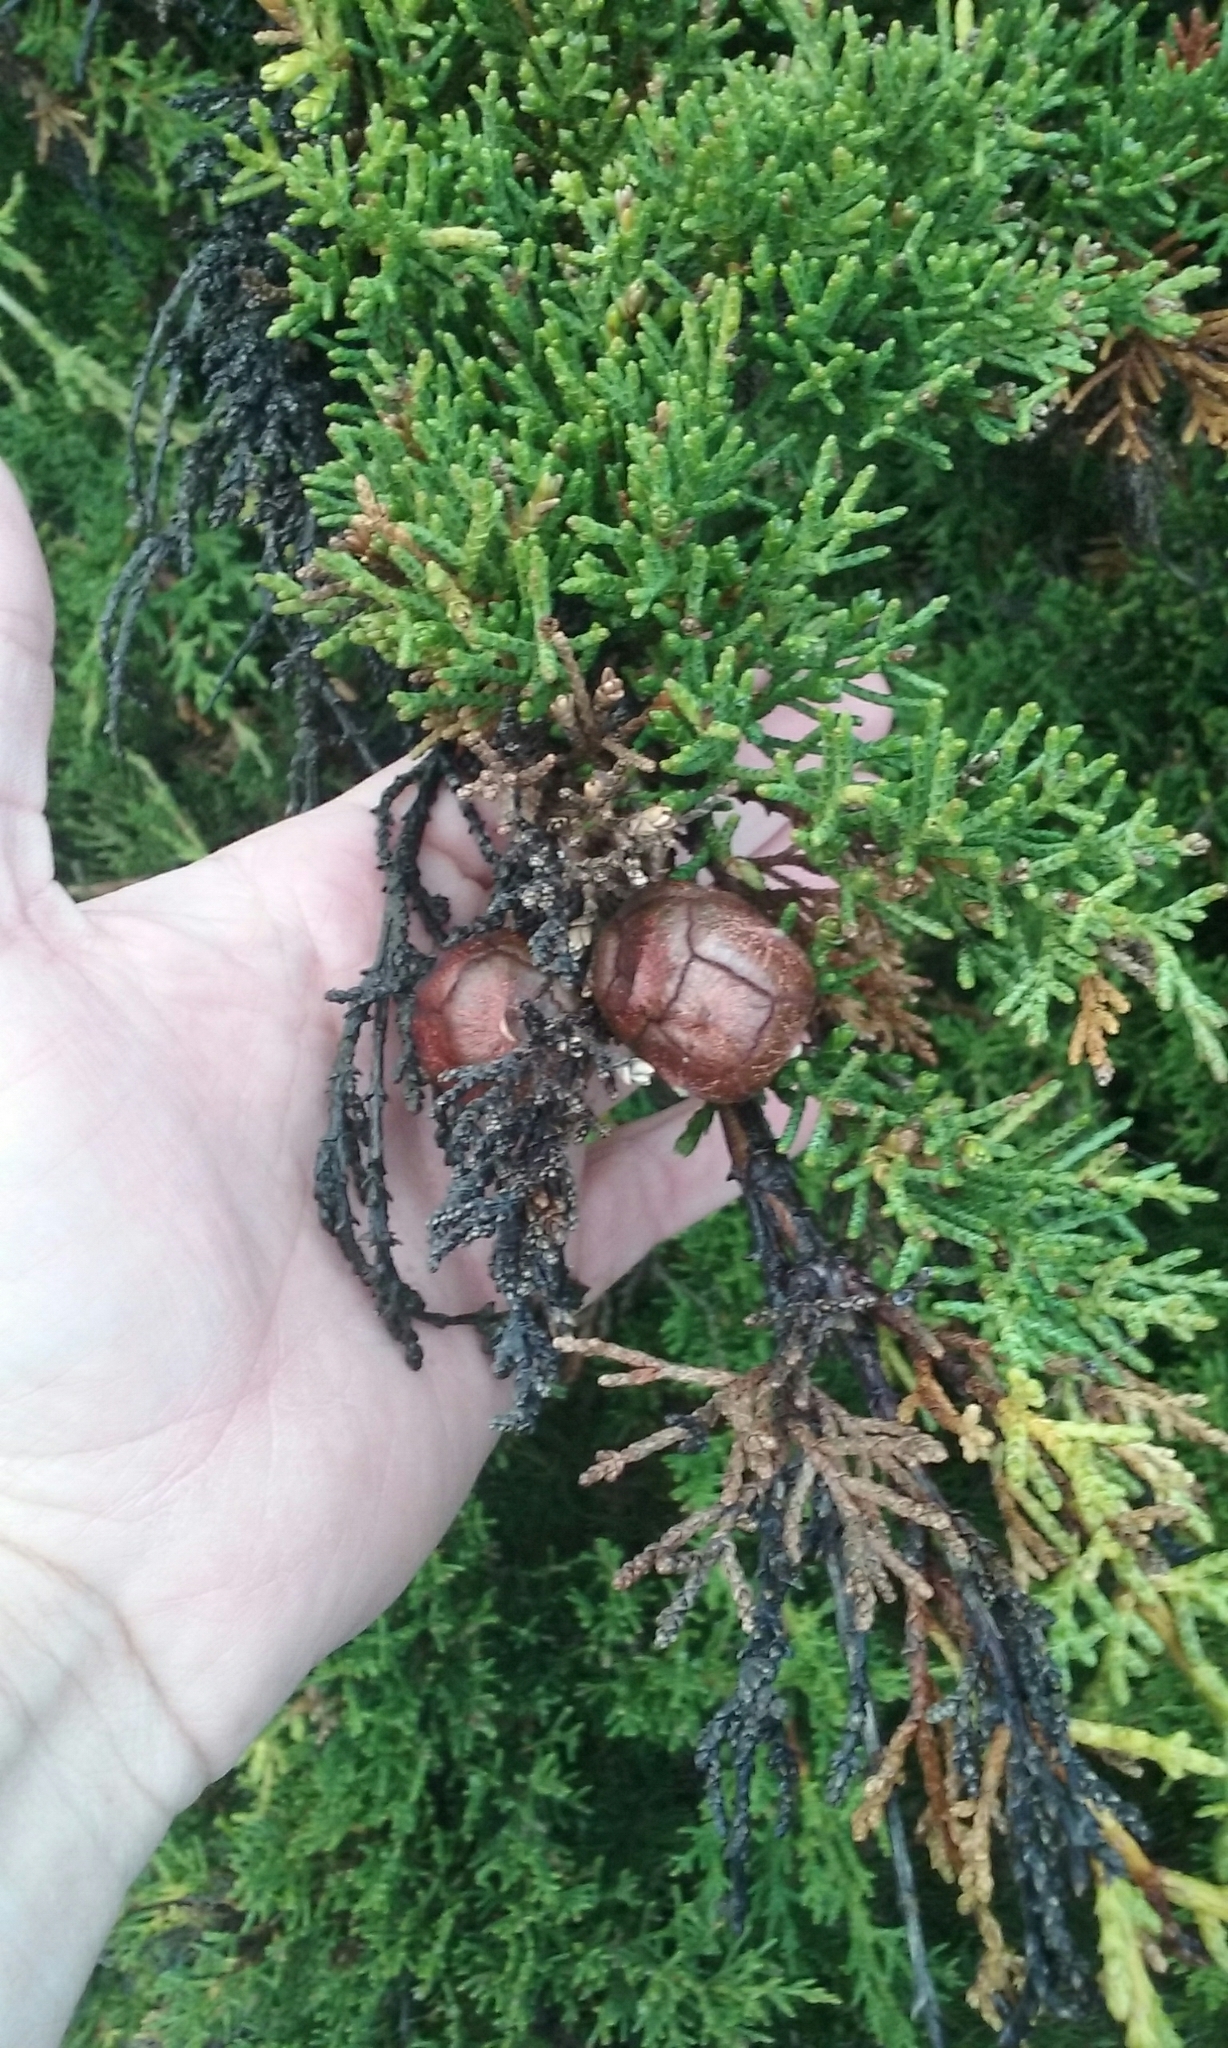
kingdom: Plantae
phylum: Tracheophyta
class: Pinopsida
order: Pinales
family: Cupressaceae
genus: Cupressus
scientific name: Cupressus macrocarpa
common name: Monterey cypress
